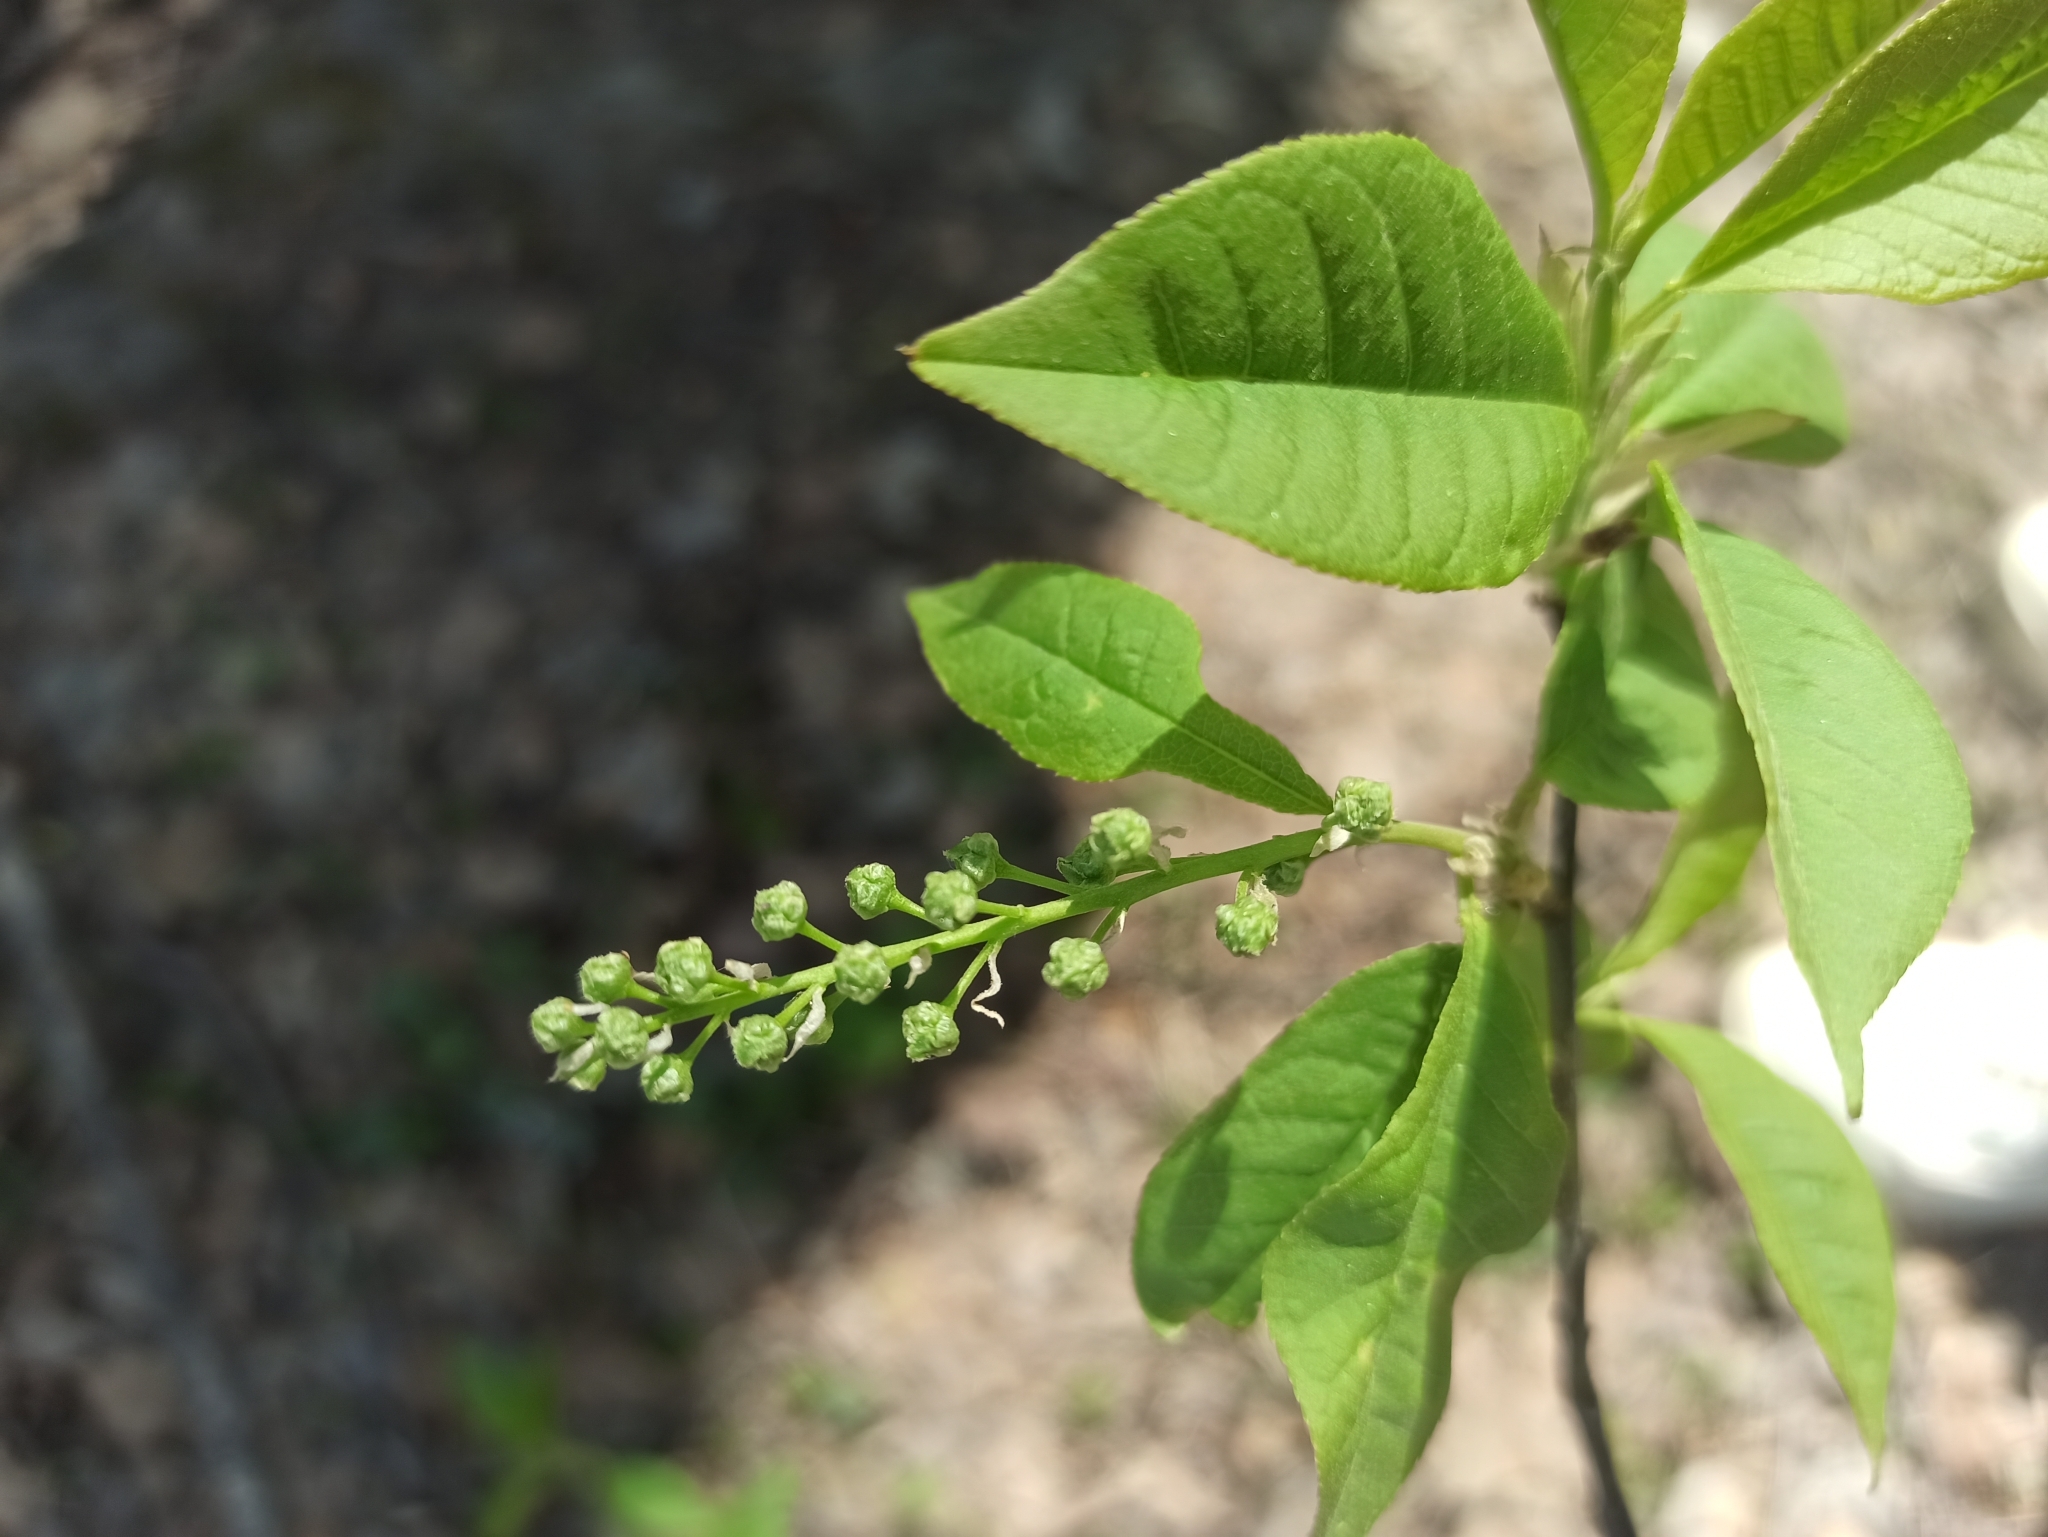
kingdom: Plantae
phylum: Tracheophyta
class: Magnoliopsida
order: Rosales
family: Rosaceae
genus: Prunus
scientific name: Prunus padus
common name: Bird cherry
